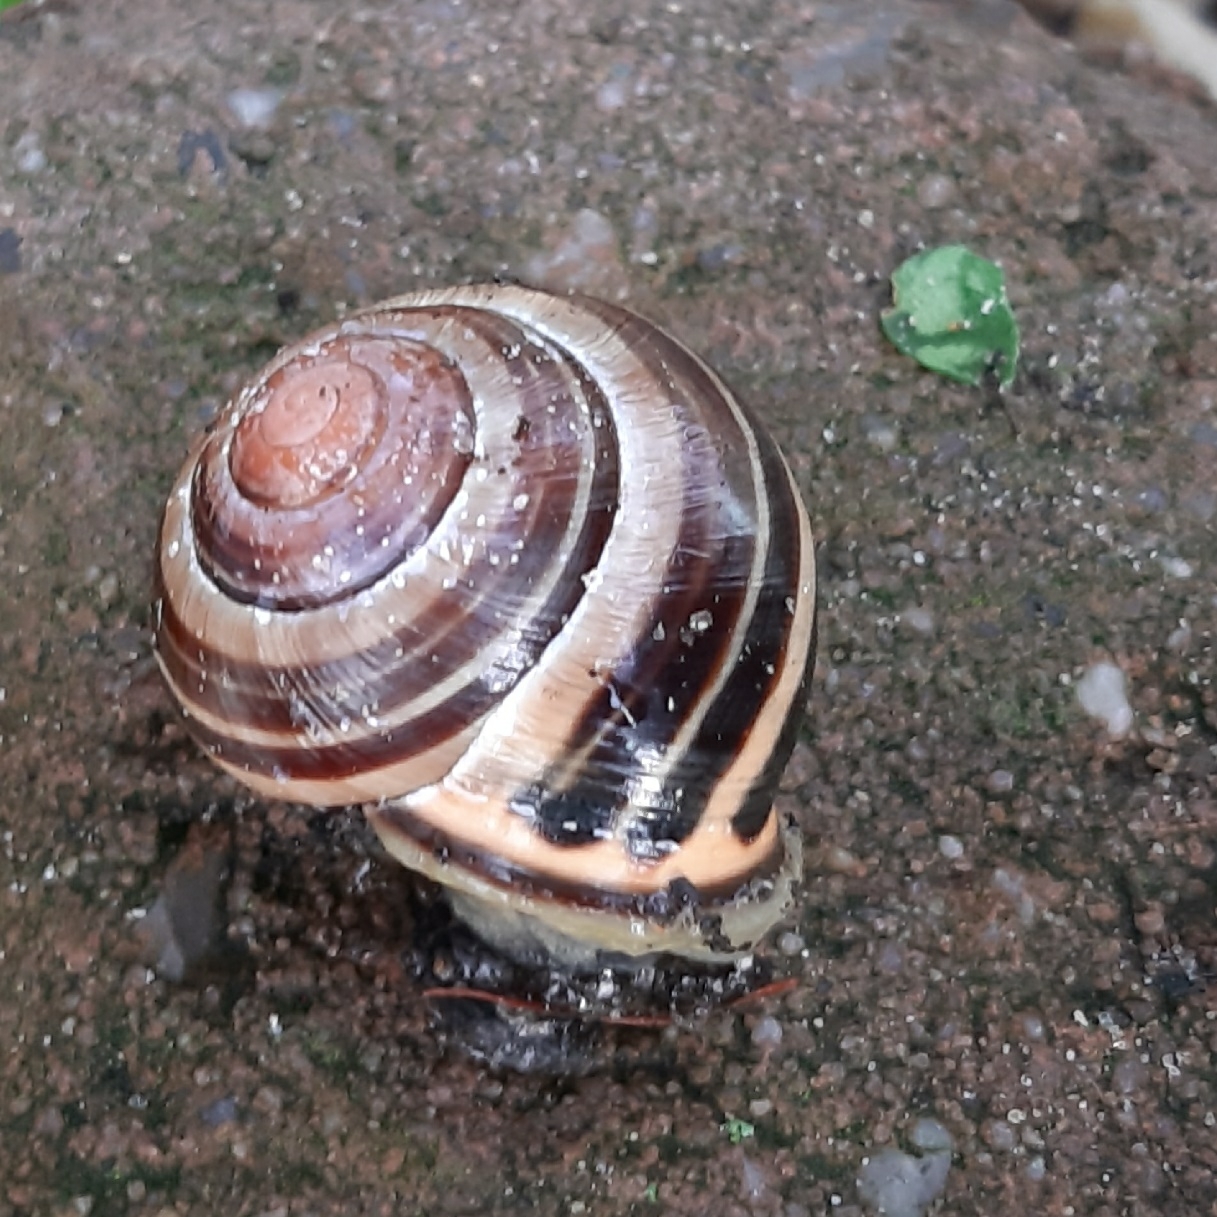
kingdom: Animalia
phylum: Mollusca
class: Gastropoda
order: Stylommatophora
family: Helicidae
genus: Cepaea
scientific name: Cepaea nemoralis
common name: Grovesnail
